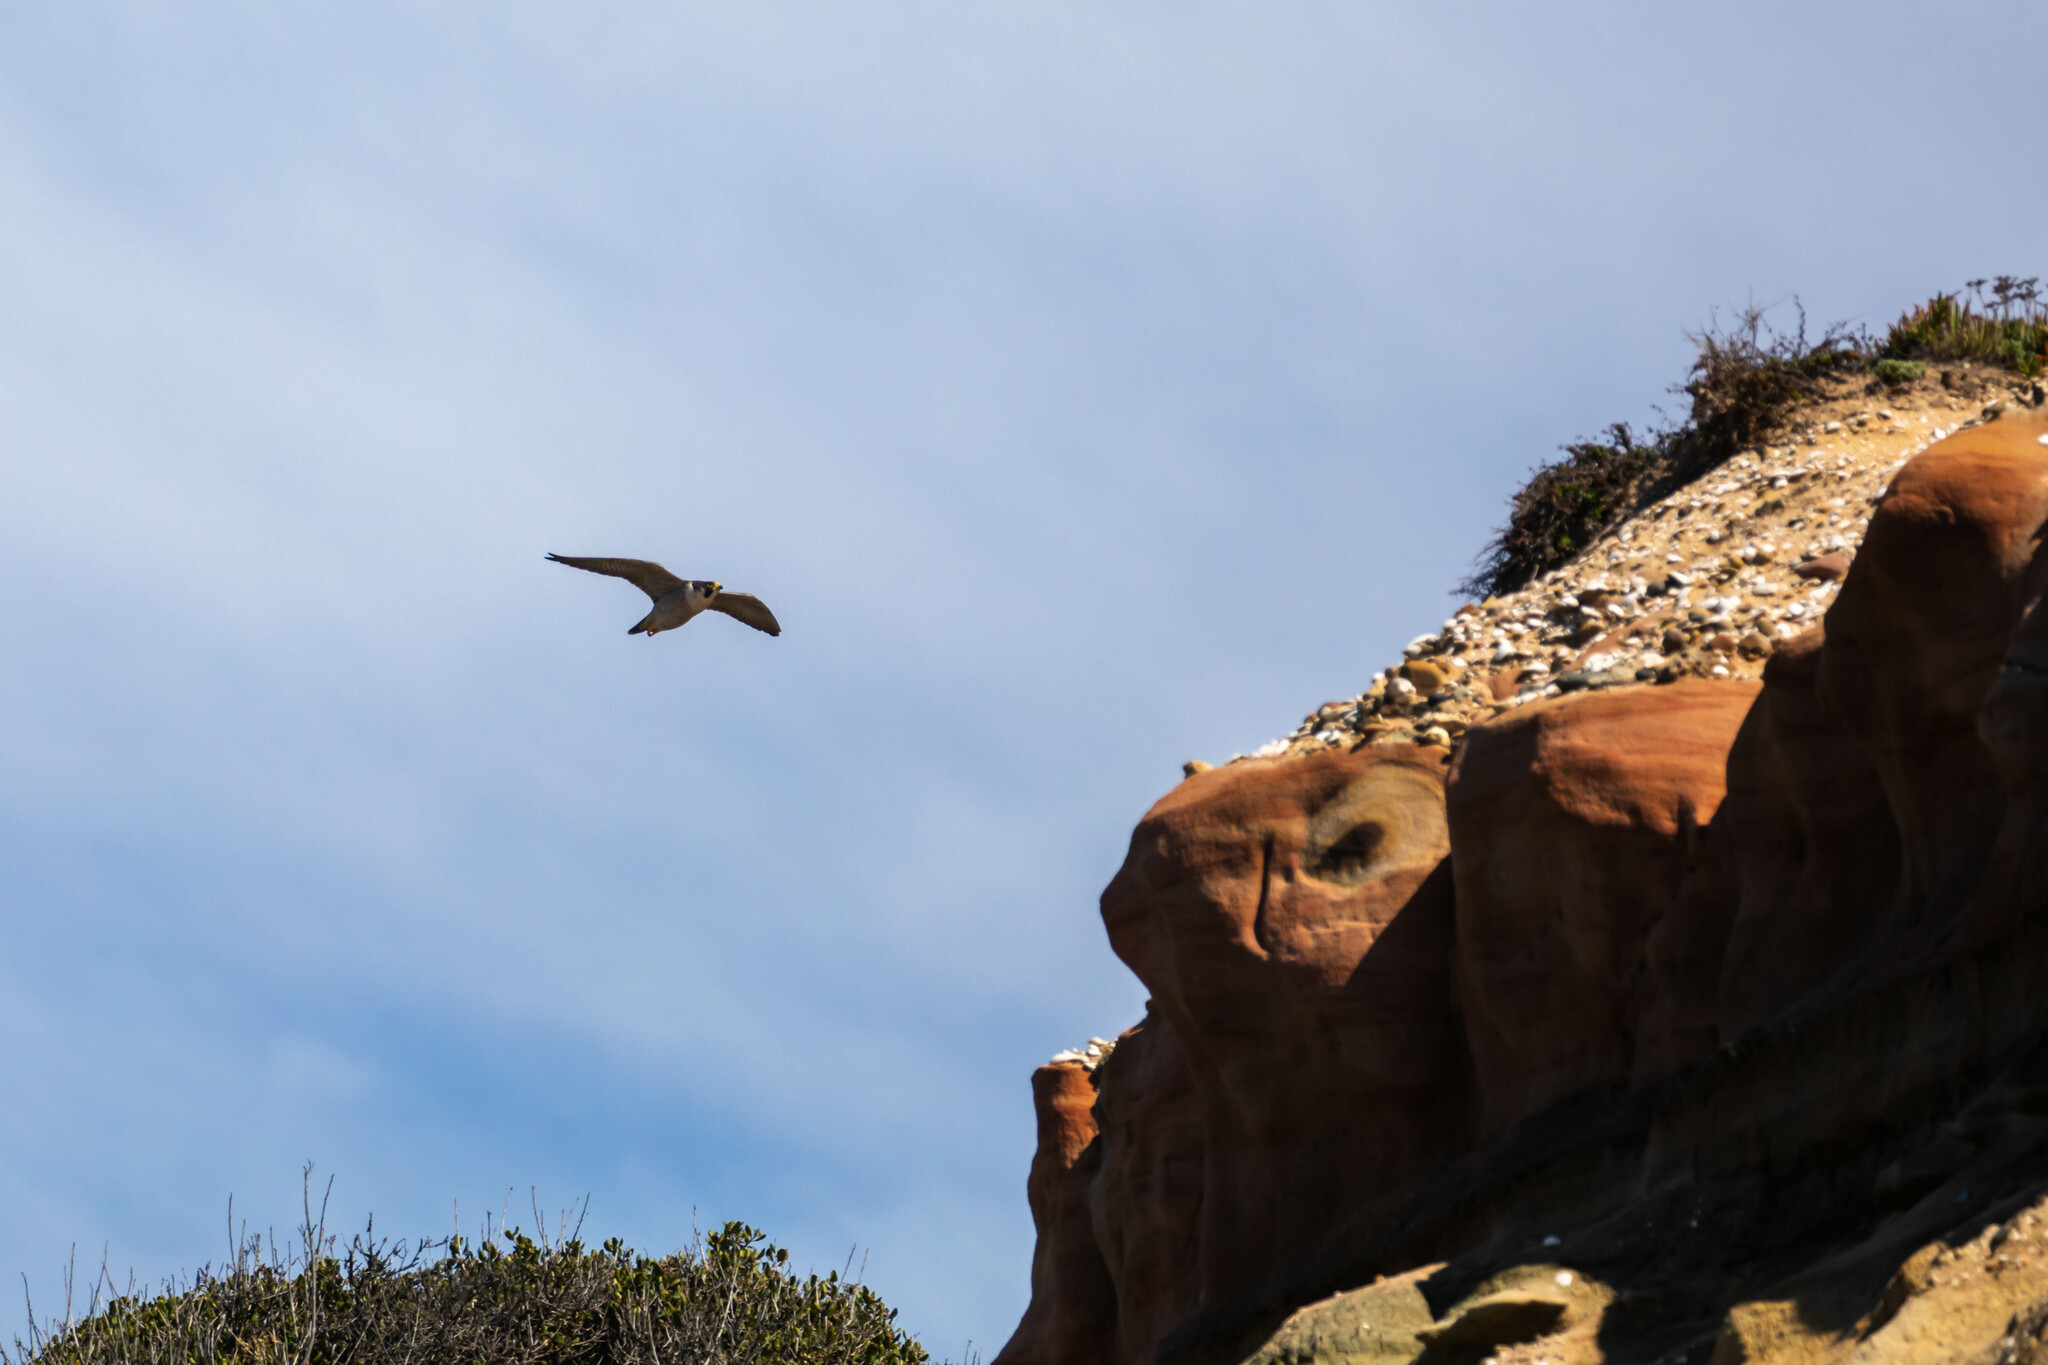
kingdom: Animalia
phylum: Chordata
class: Aves
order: Falconiformes
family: Falconidae
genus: Falco
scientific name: Falco peregrinus
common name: Peregrine falcon
